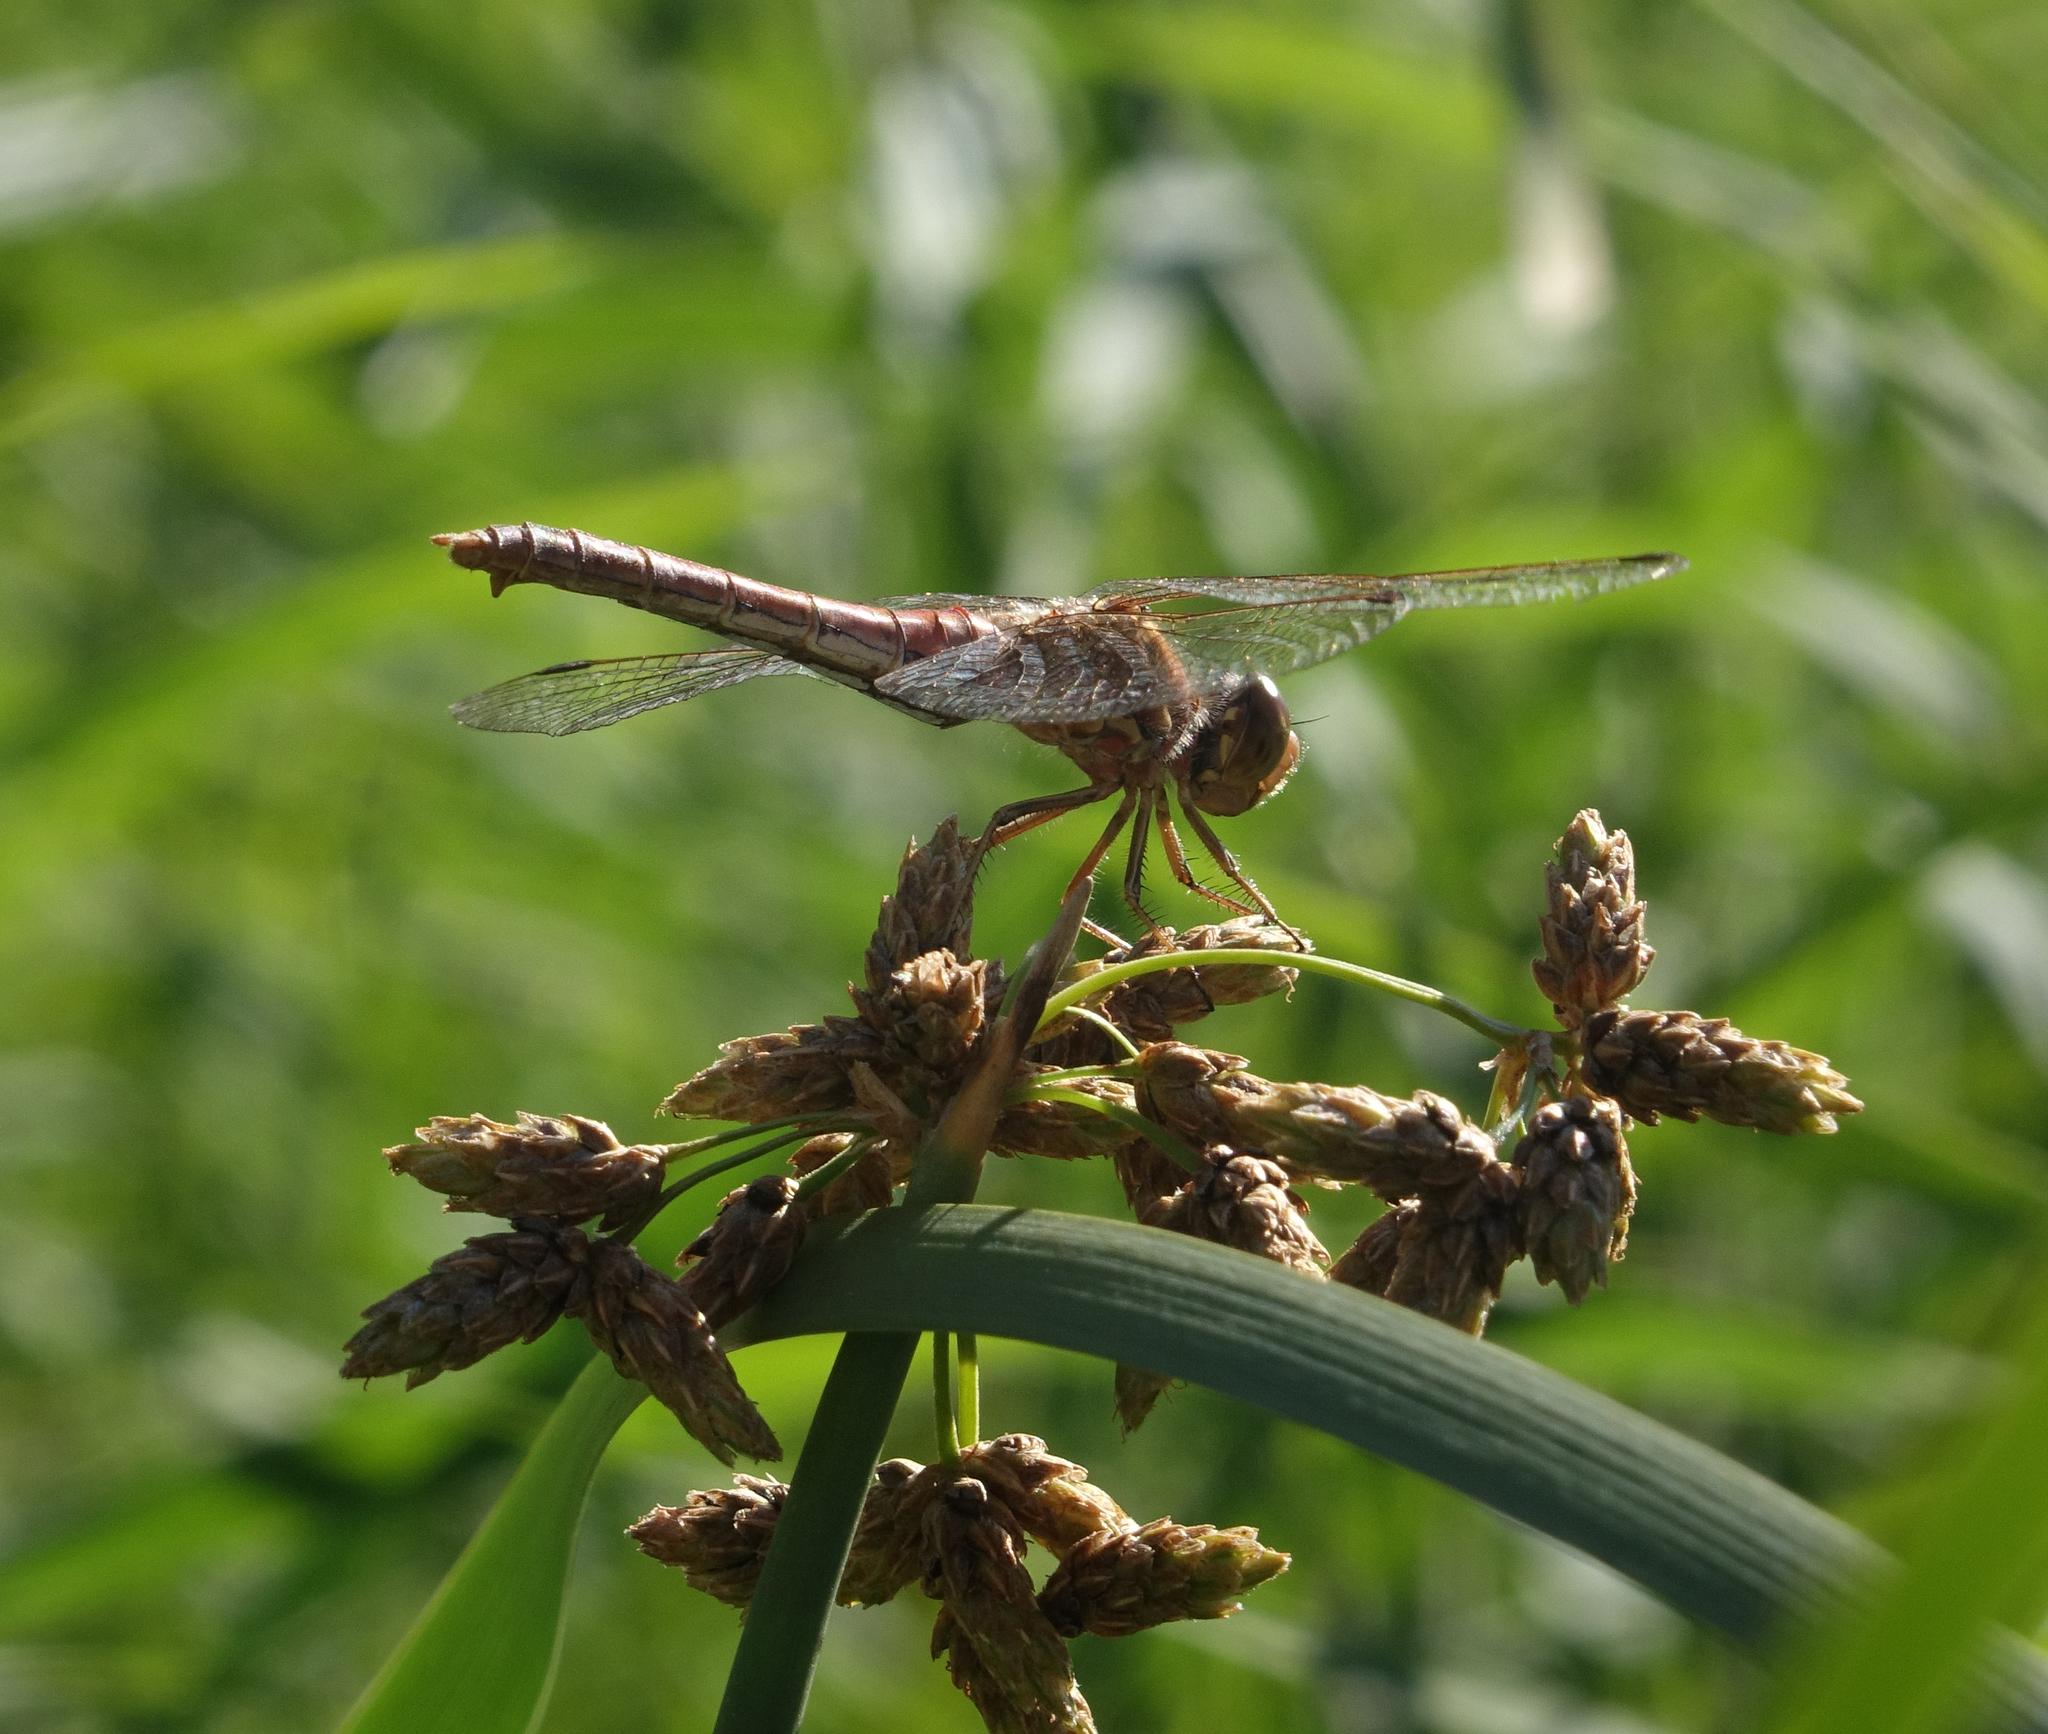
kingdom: Animalia
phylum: Arthropoda
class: Insecta
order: Odonata
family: Libellulidae
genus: Sympetrum
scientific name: Sympetrum vulgatum
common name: Vagrant darter
